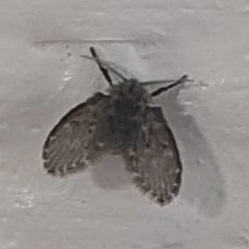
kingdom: Animalia
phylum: Arthropoda
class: Insecta
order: Diptera
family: Psychodidae
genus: Clogmia
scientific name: Clogmia albipunctatus
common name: White-spotted moth fly
